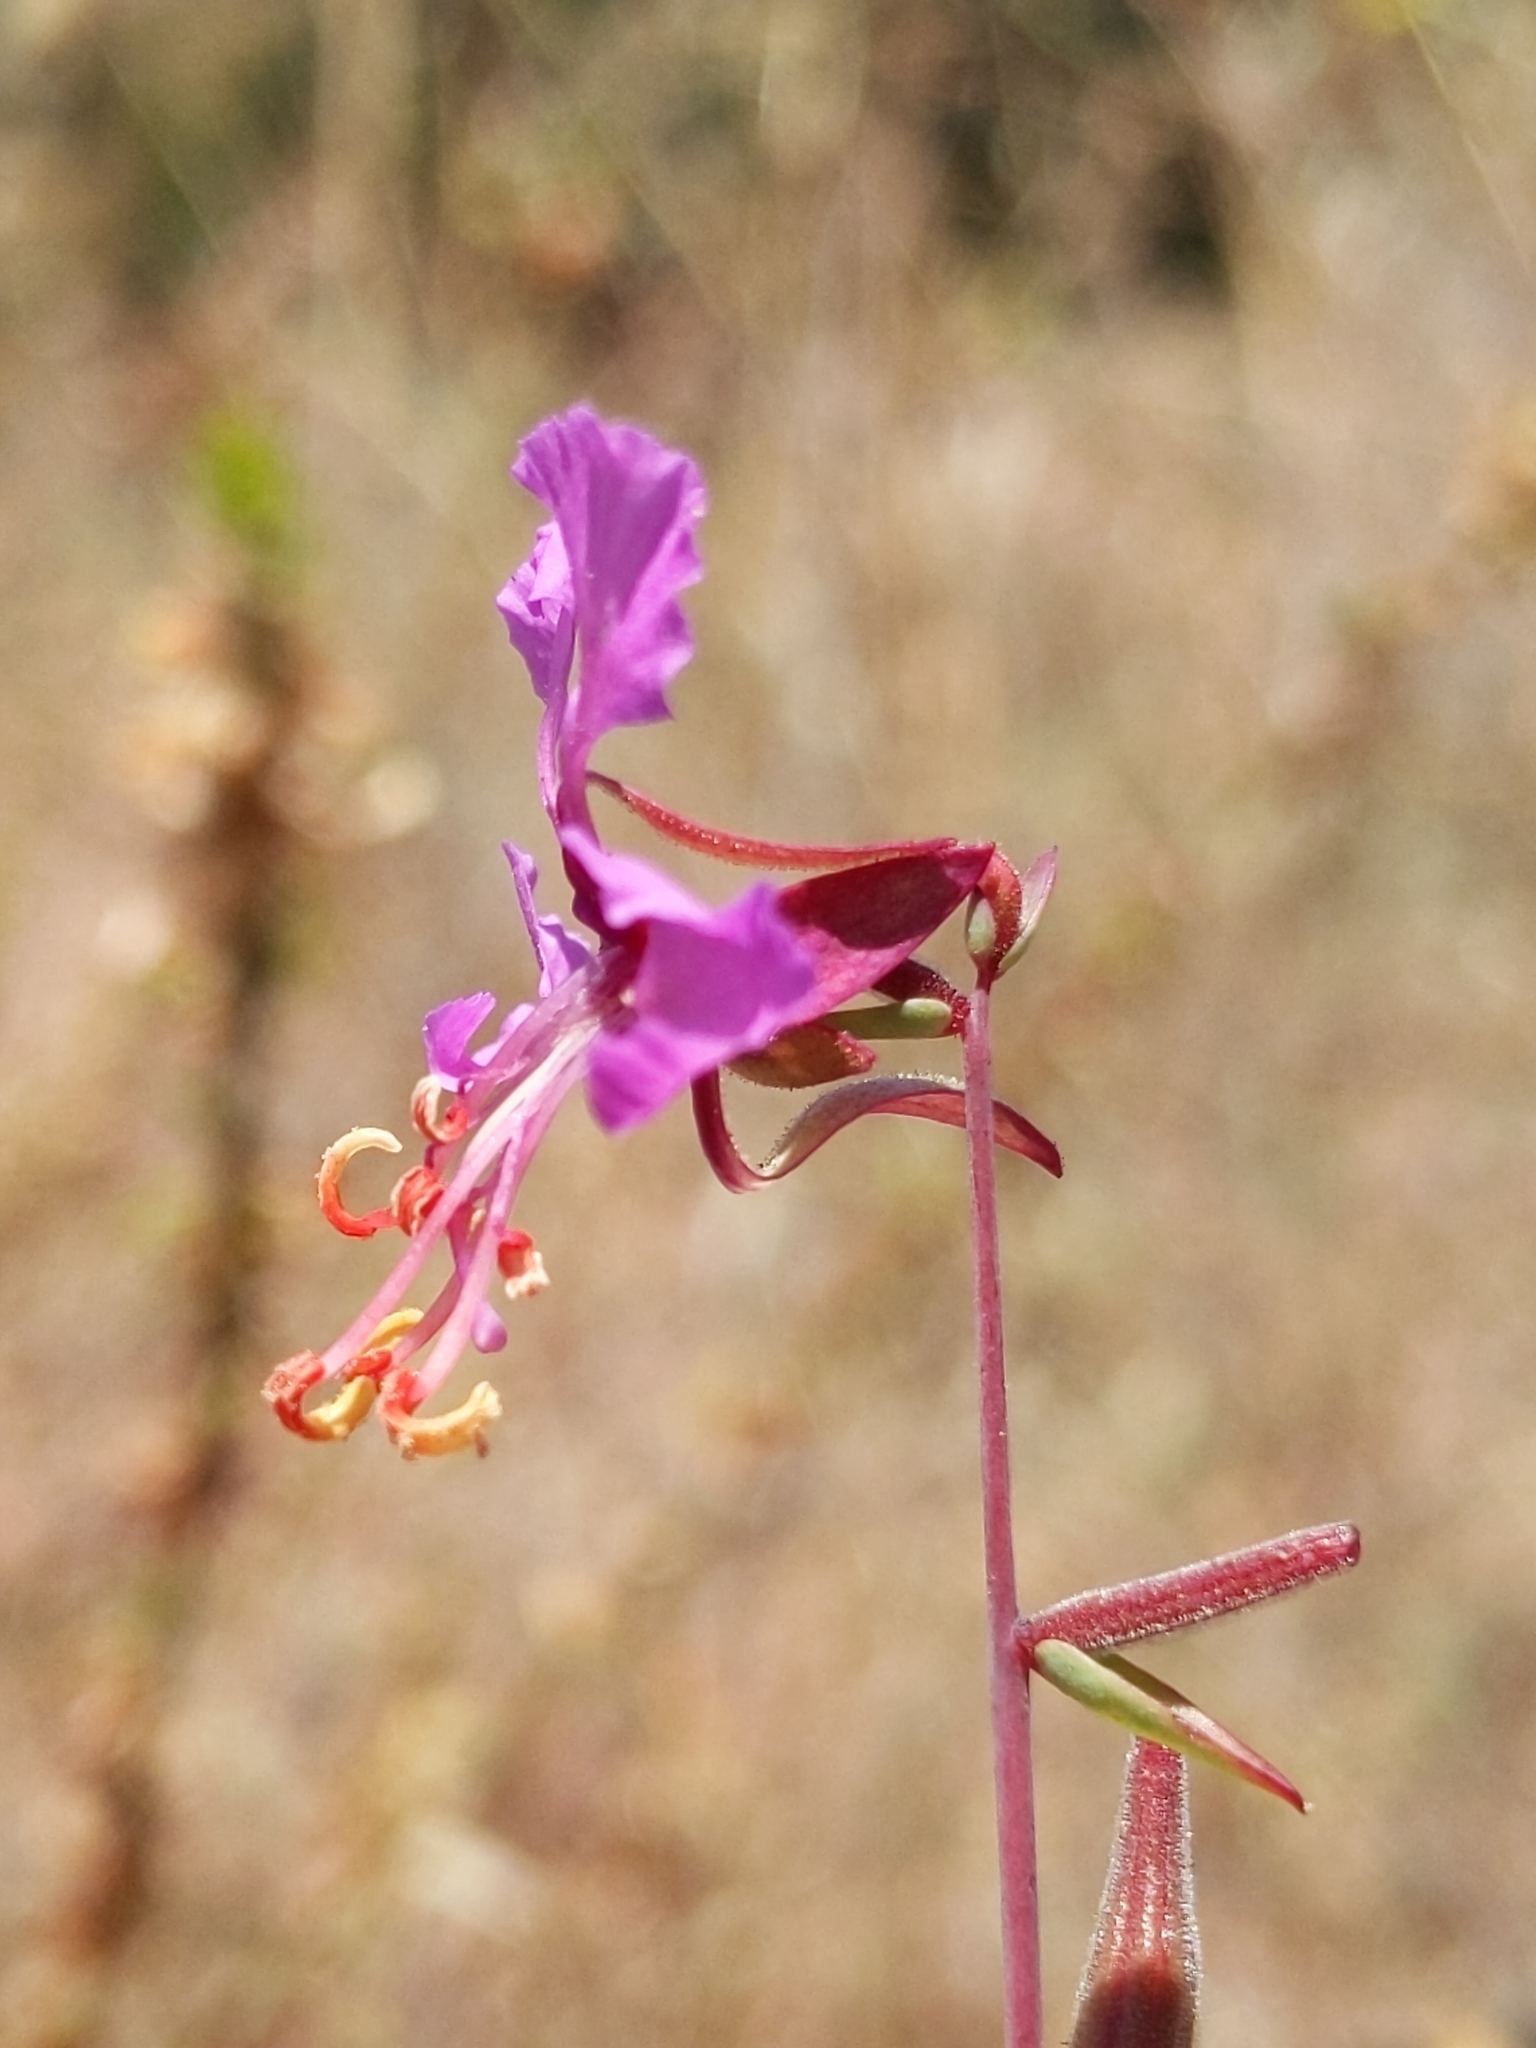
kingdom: Plantae
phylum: Tracheophyta
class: Magnoliopsida
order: Myrtales
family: Onagraceae
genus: Clarkia
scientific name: Clarkia unguiculata
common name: Clarkia
